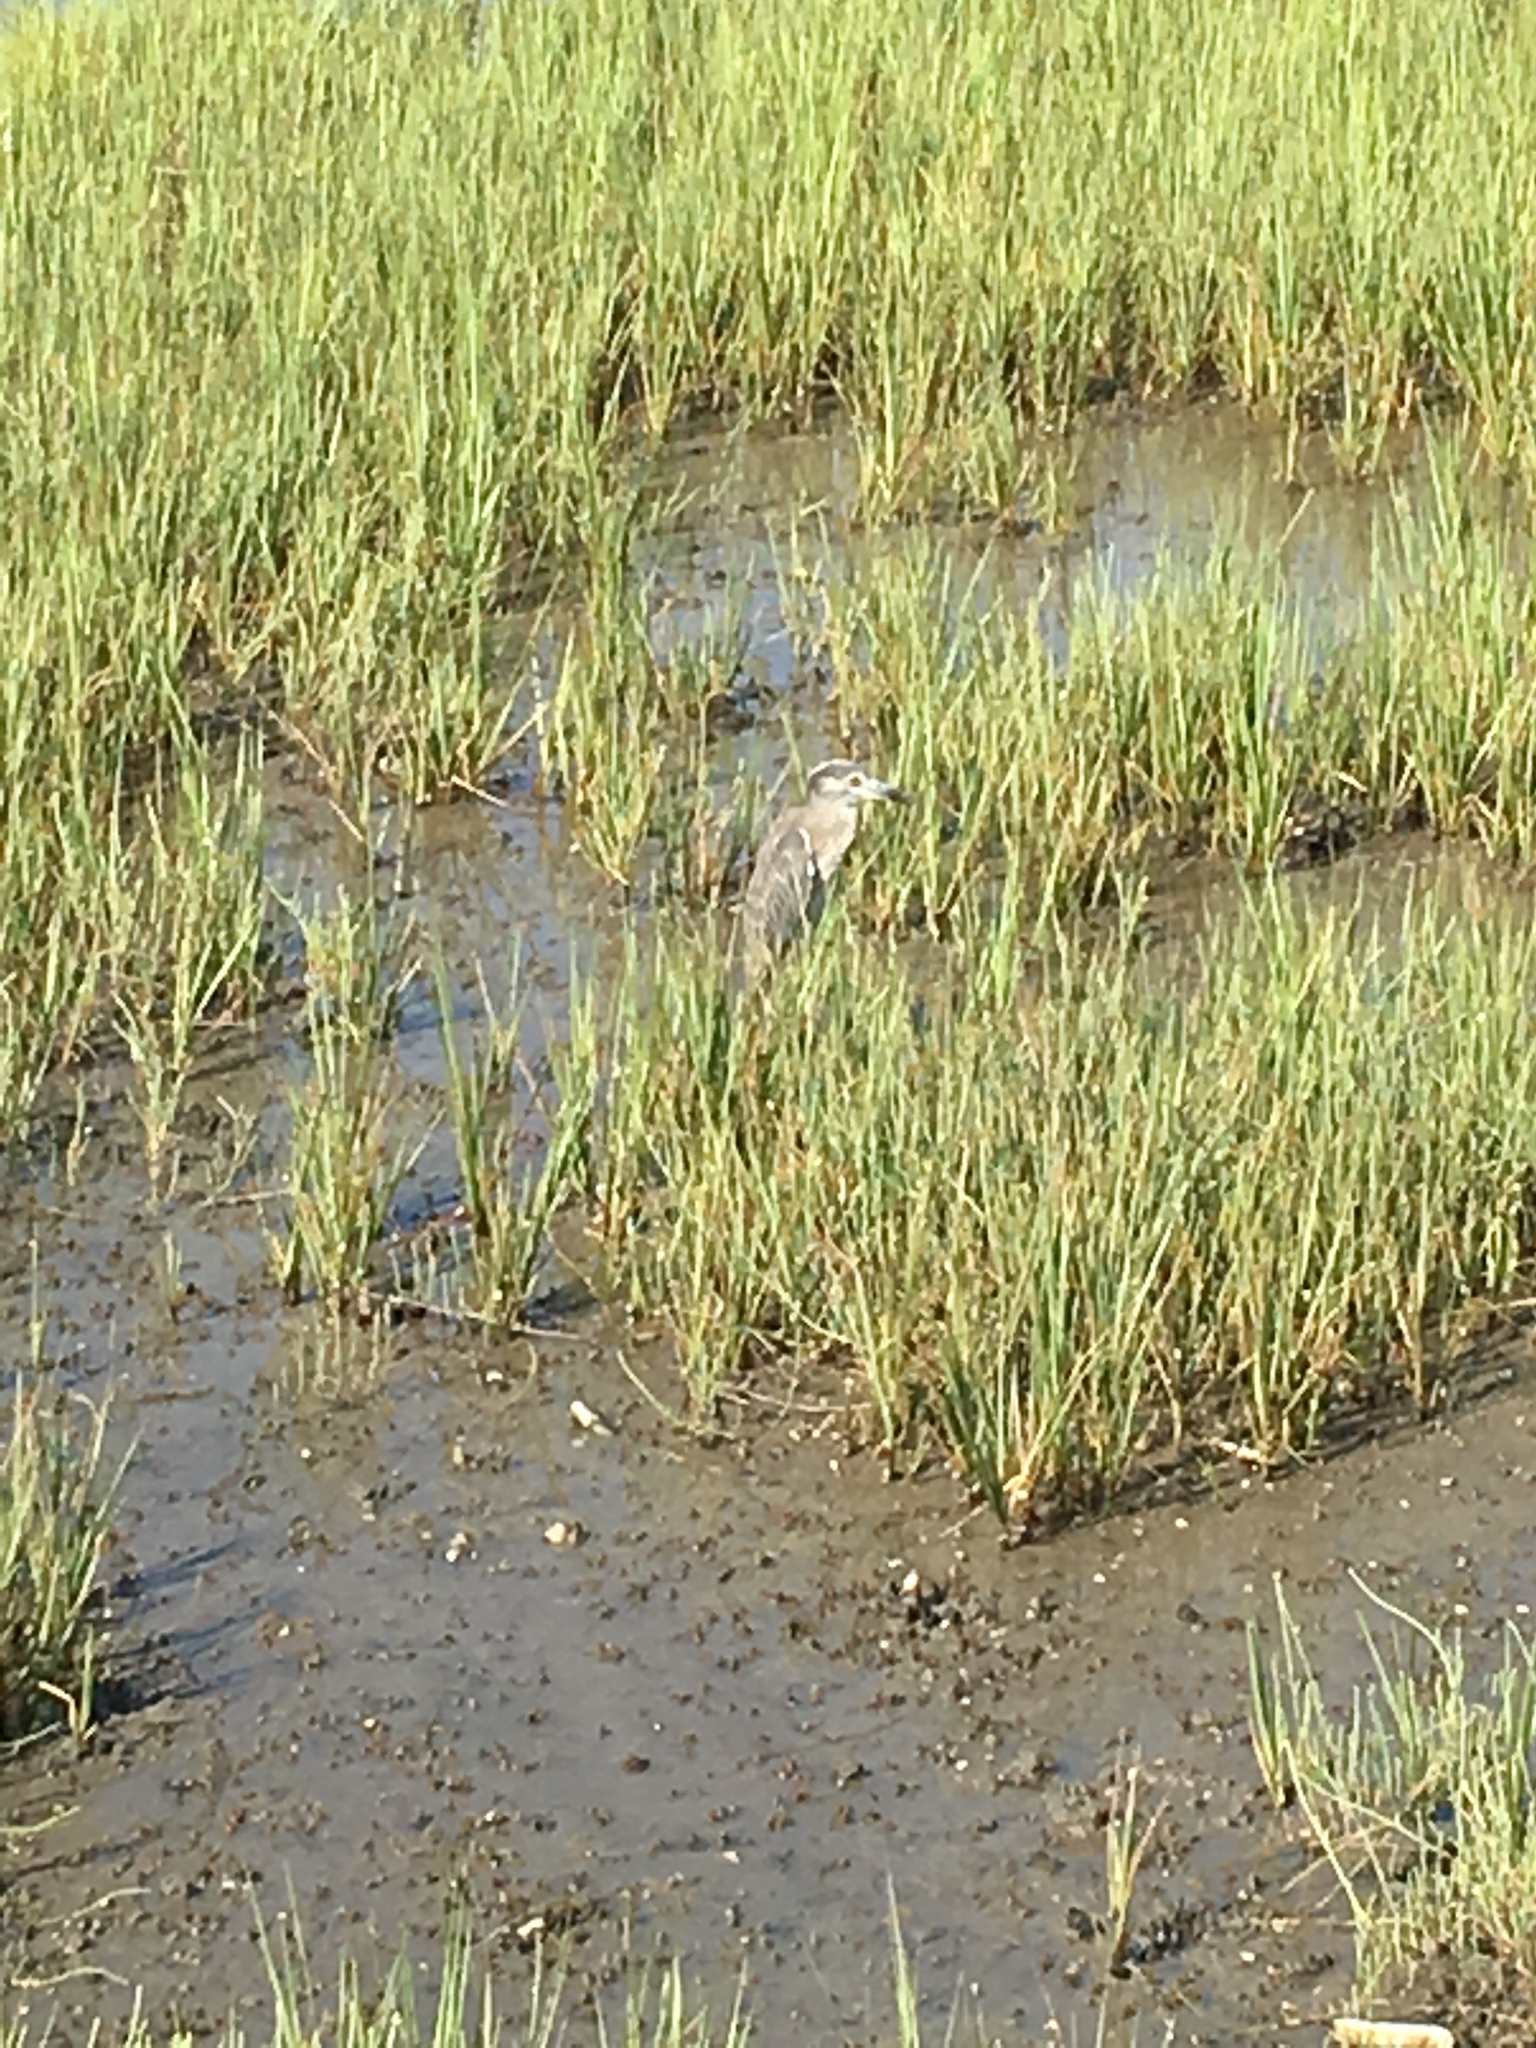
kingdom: Animalia
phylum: Chordata
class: Aves
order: Pelecaniformes
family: Ardeidae
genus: Nyctanassa
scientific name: Nyctanassa violacea
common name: Yellow-crowned night heron
